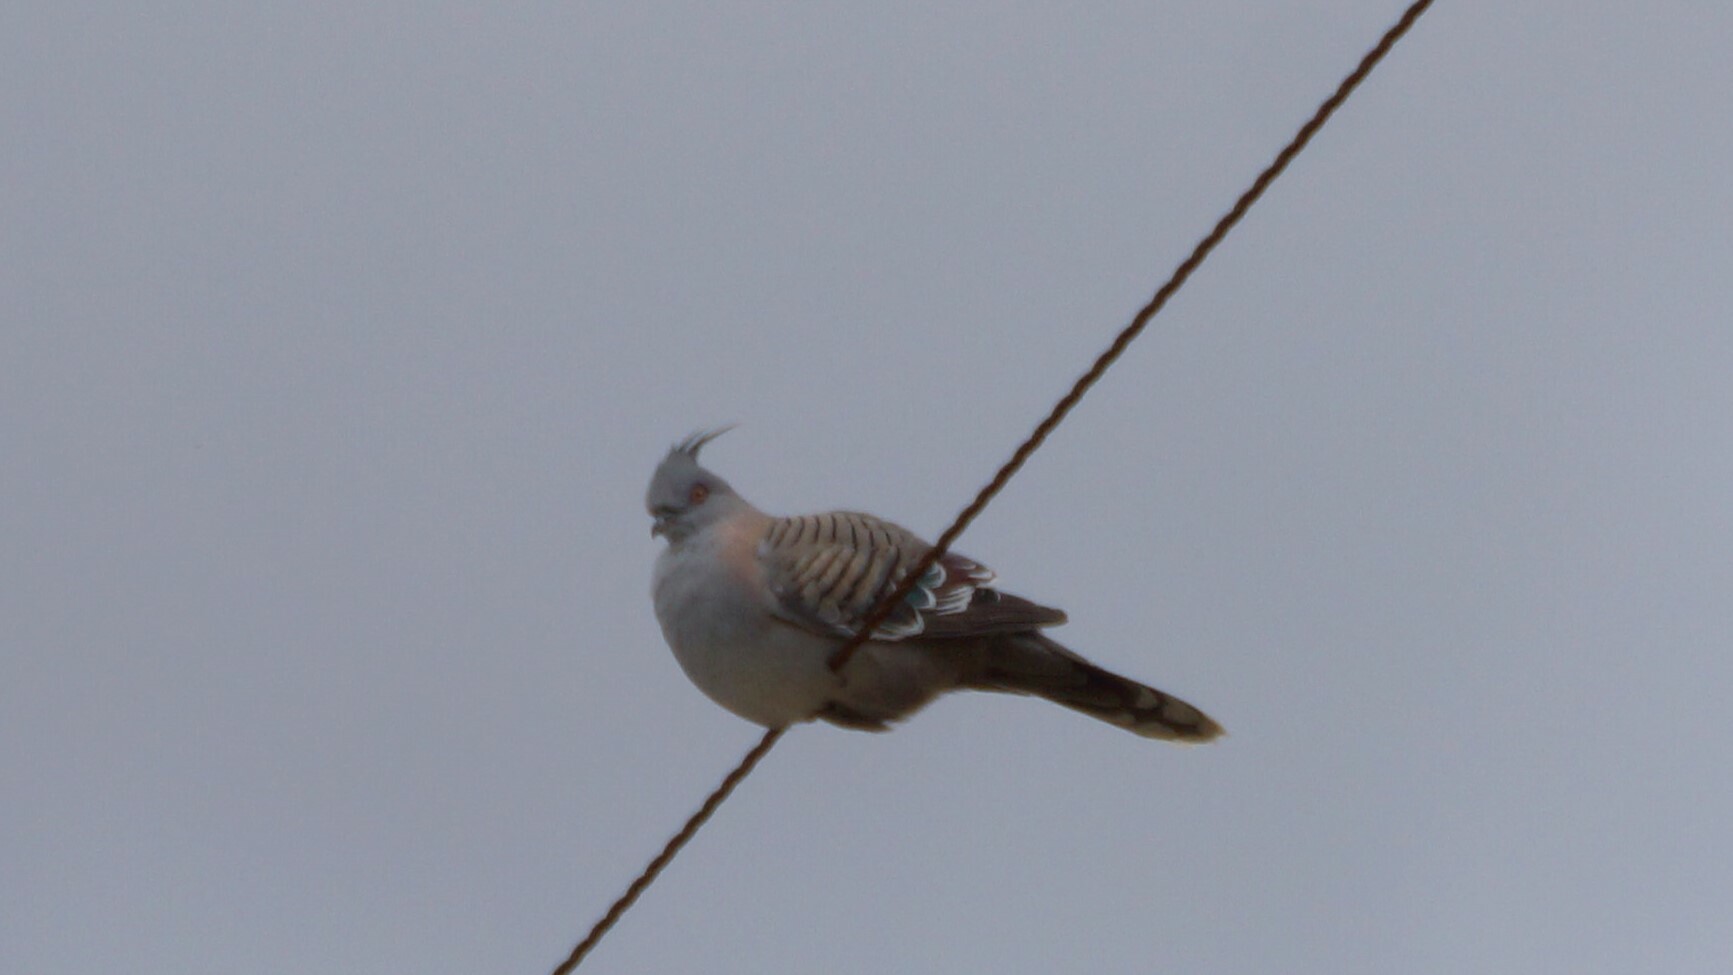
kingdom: Animalia
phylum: Chordata
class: Aves
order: Columbiformes
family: Columbidae
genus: Ocyphaps
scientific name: Ocyphaps lophotes
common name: Crested pigeon
